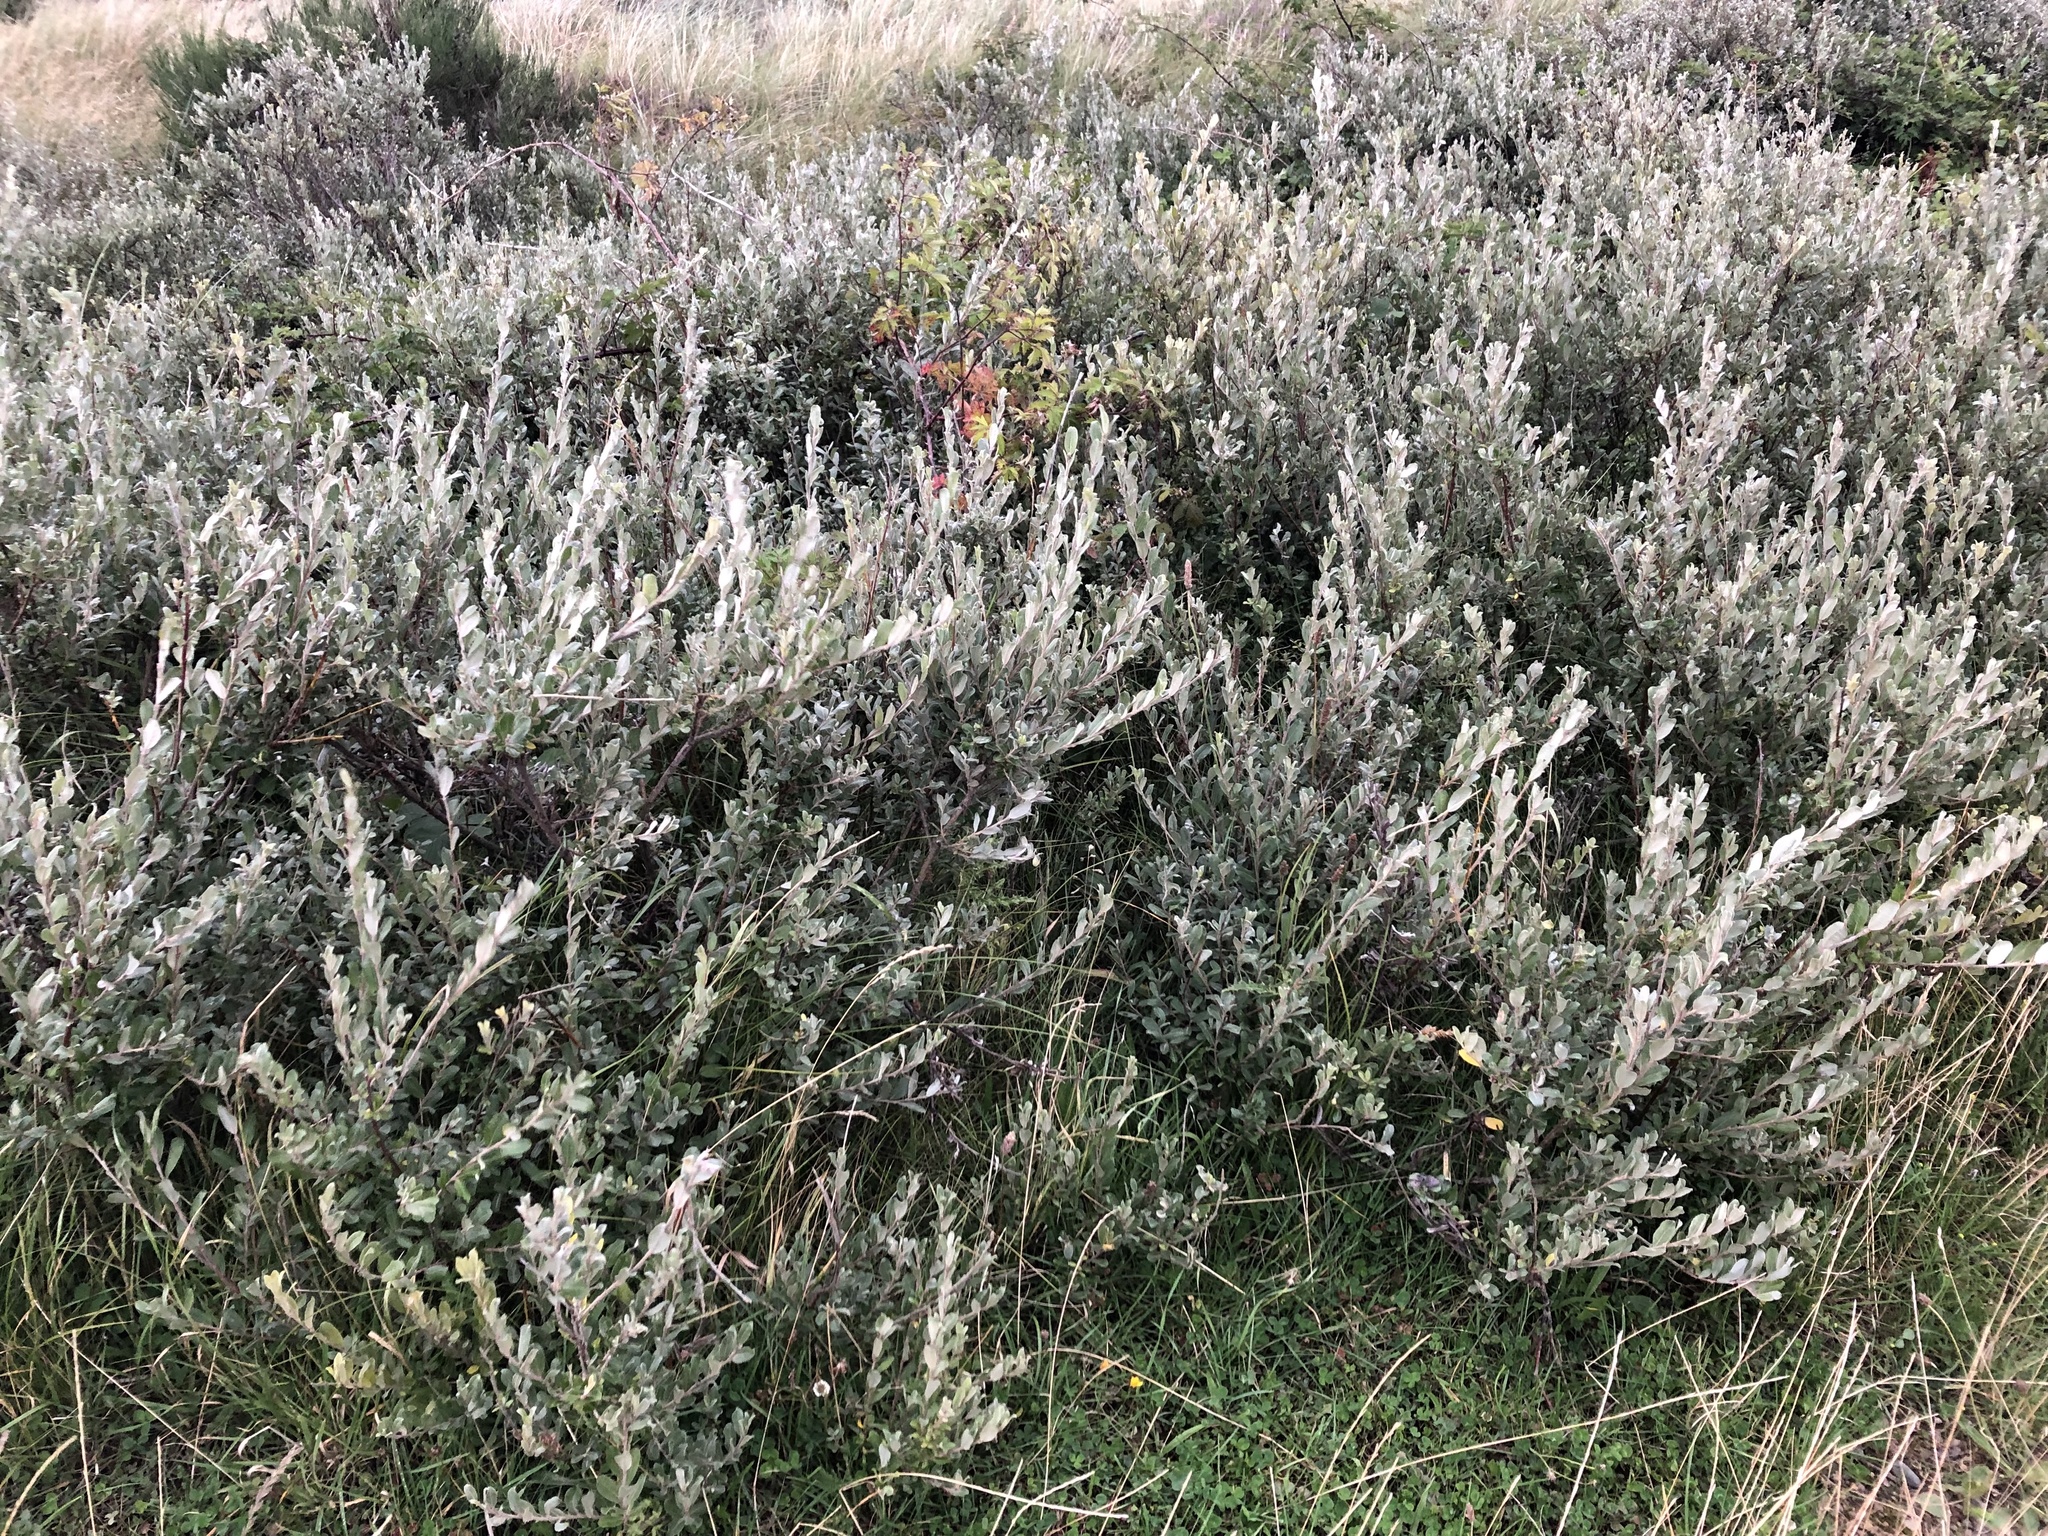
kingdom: Plantae
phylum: Tracheophyta
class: Magnoliopsida
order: Malpighiales
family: Salicaceae
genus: Salix
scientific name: Salix repens
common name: Creeping willow
